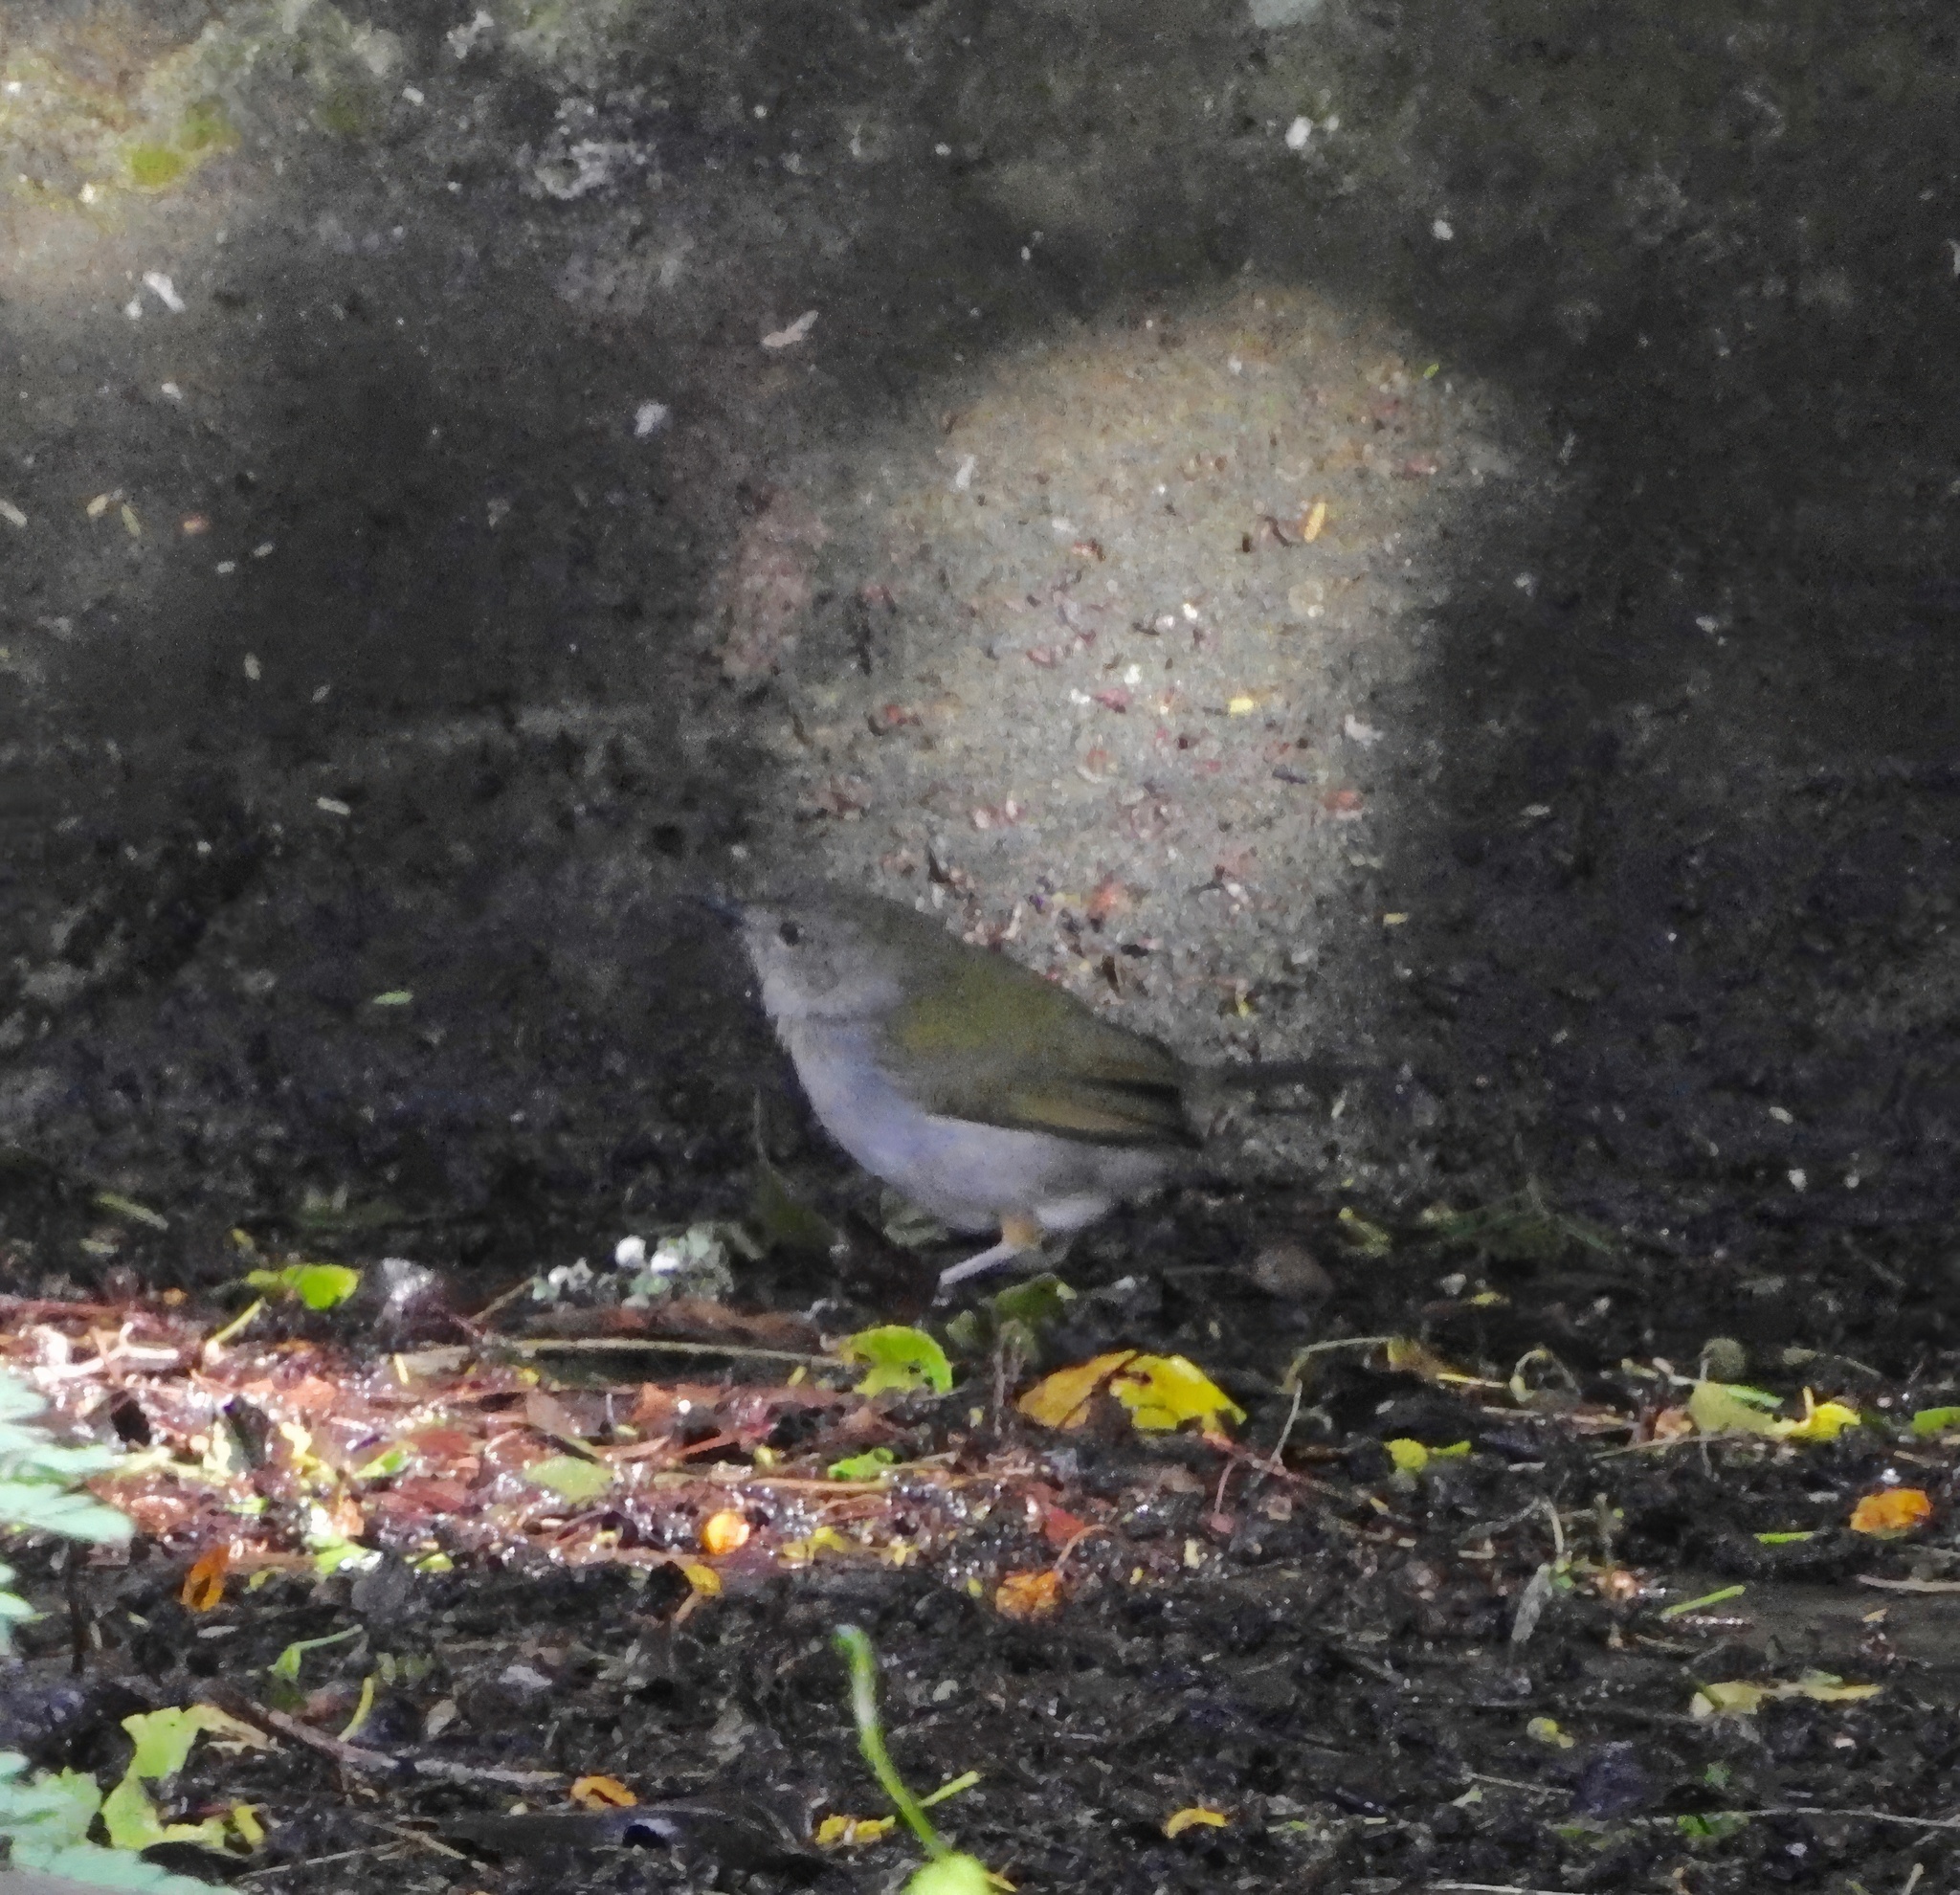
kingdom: Animalia
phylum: Chordata
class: Aves
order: Passeriformes
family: Cisticolidae
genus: Camaroptera
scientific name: Camaroptera brachyura
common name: Green-backed camaroptera
